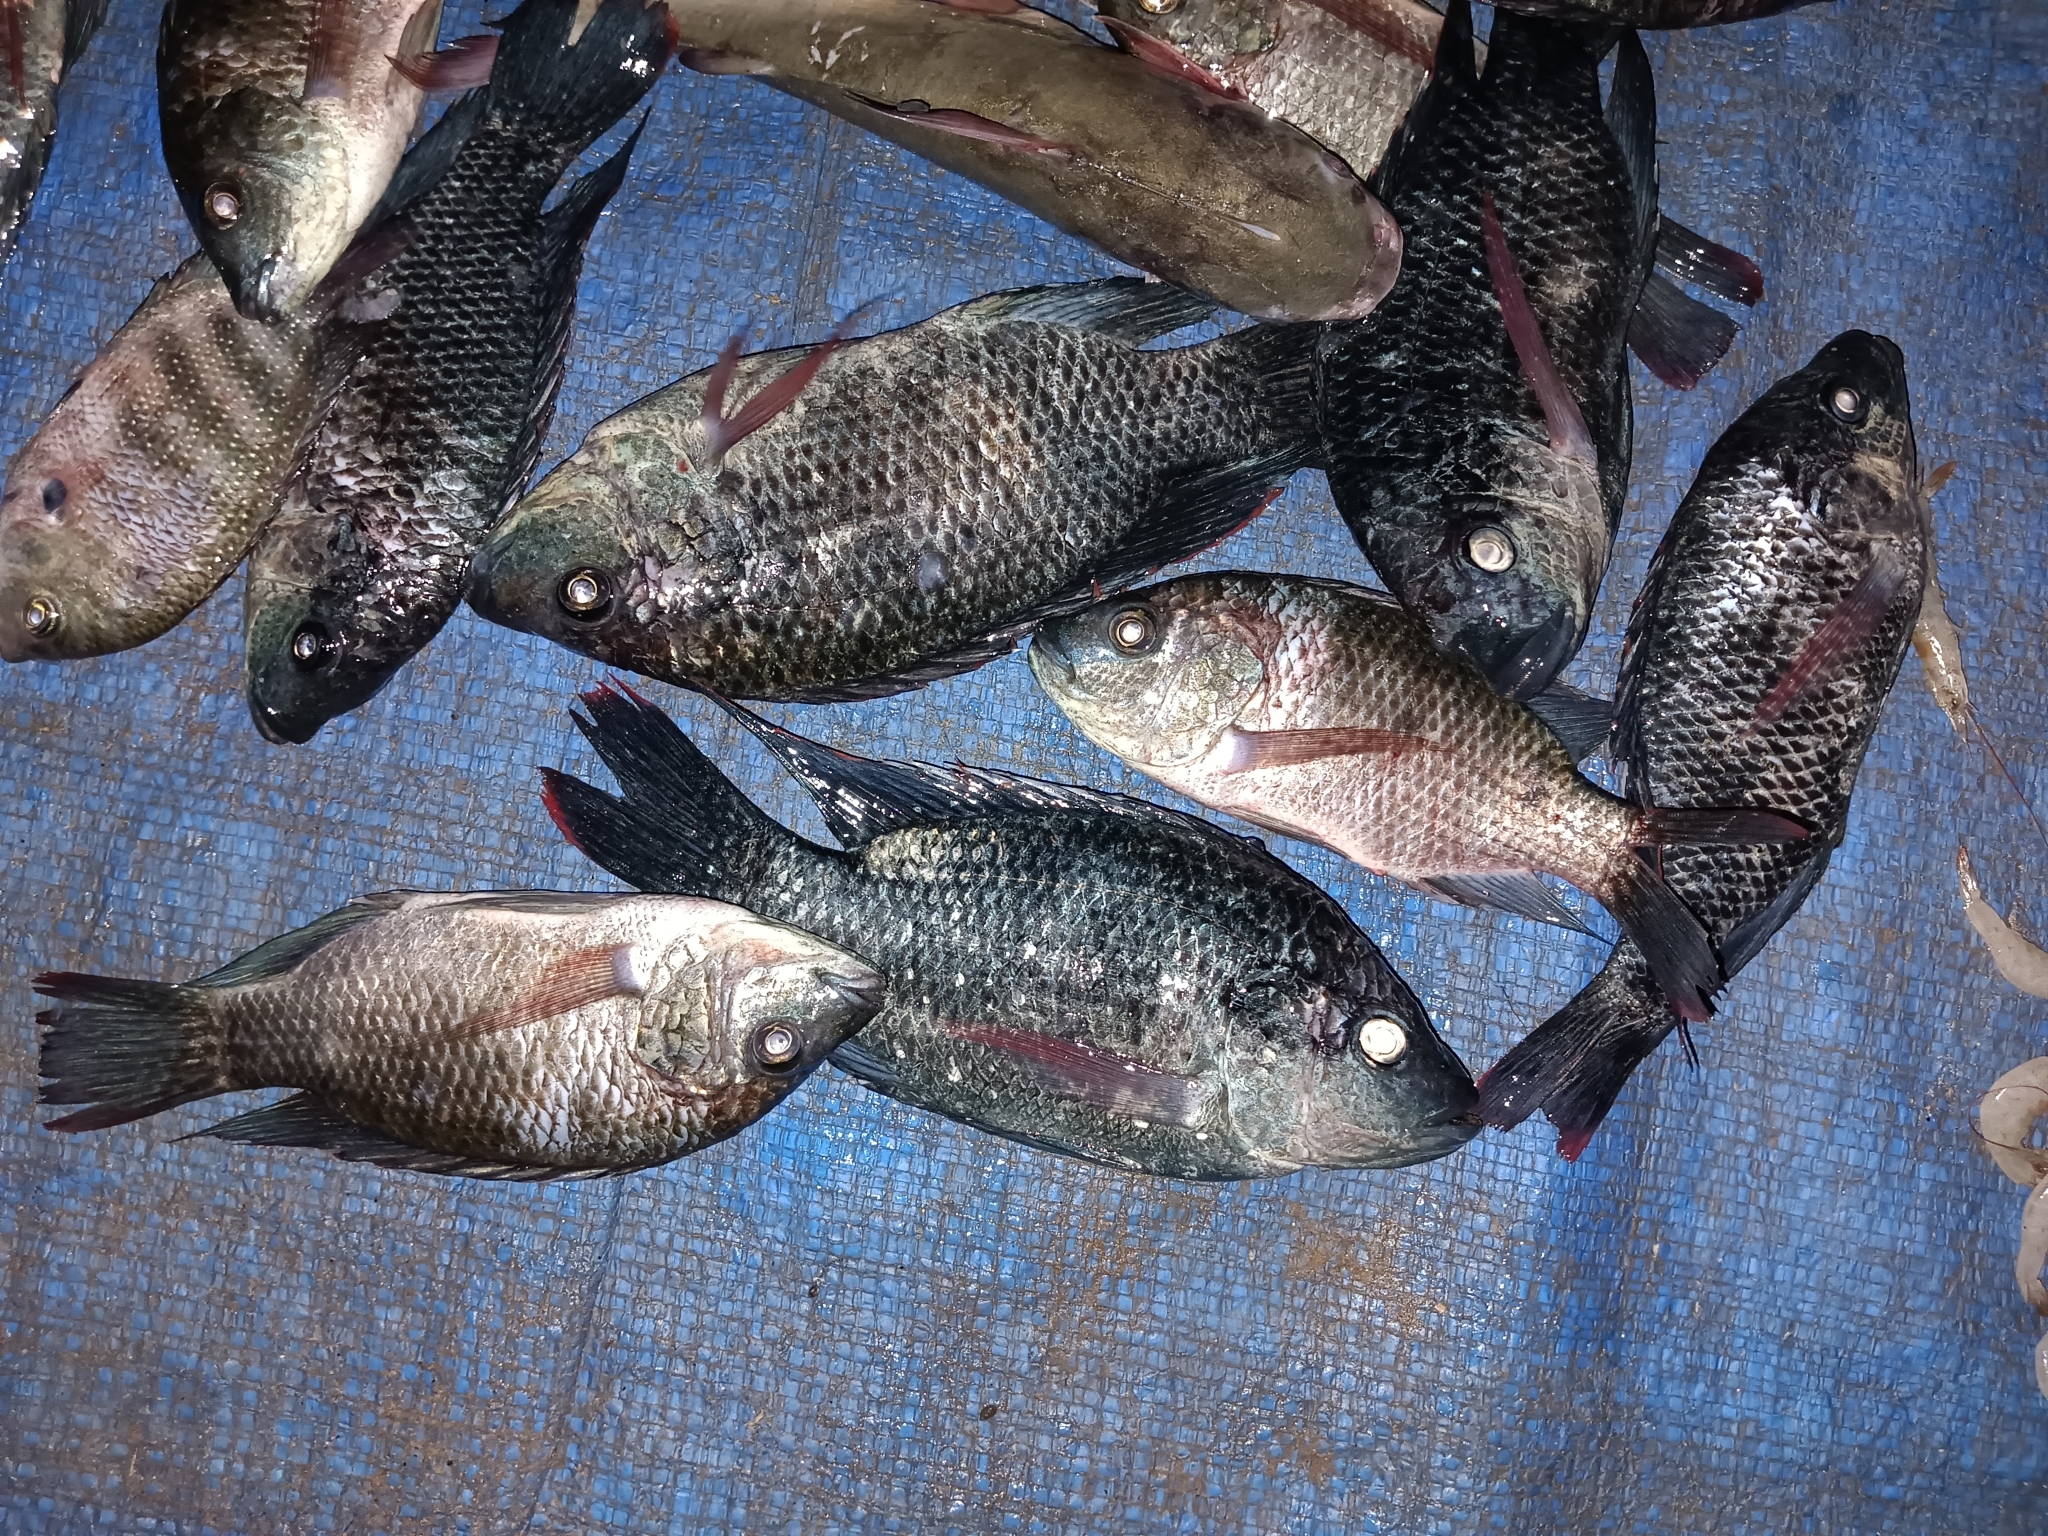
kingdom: Animalia
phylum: Chordata
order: Perciformes
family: Cichlidae
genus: Oreochromis
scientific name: Oreochromis mossambicus
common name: Mozambique tilapia
